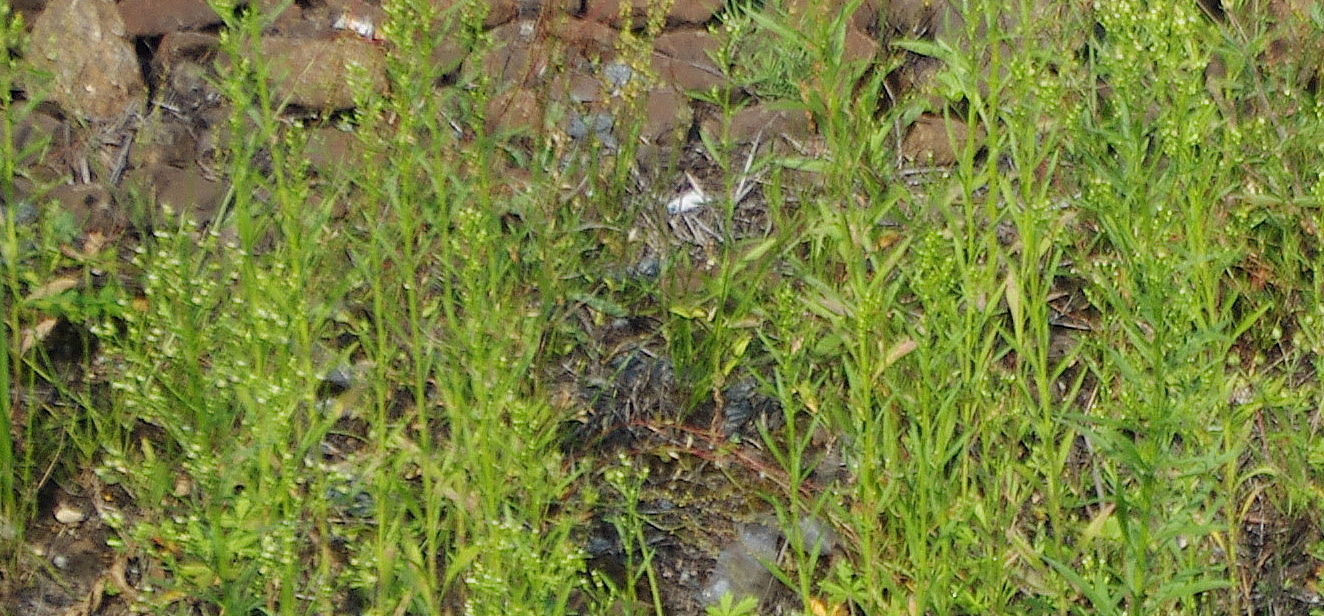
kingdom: Plantae
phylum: Tracheophyta
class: Magnoliopsida
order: Asterales
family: Asteraceae
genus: Erigeron
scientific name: Erigeron canadensis
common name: Canadian fleabane
